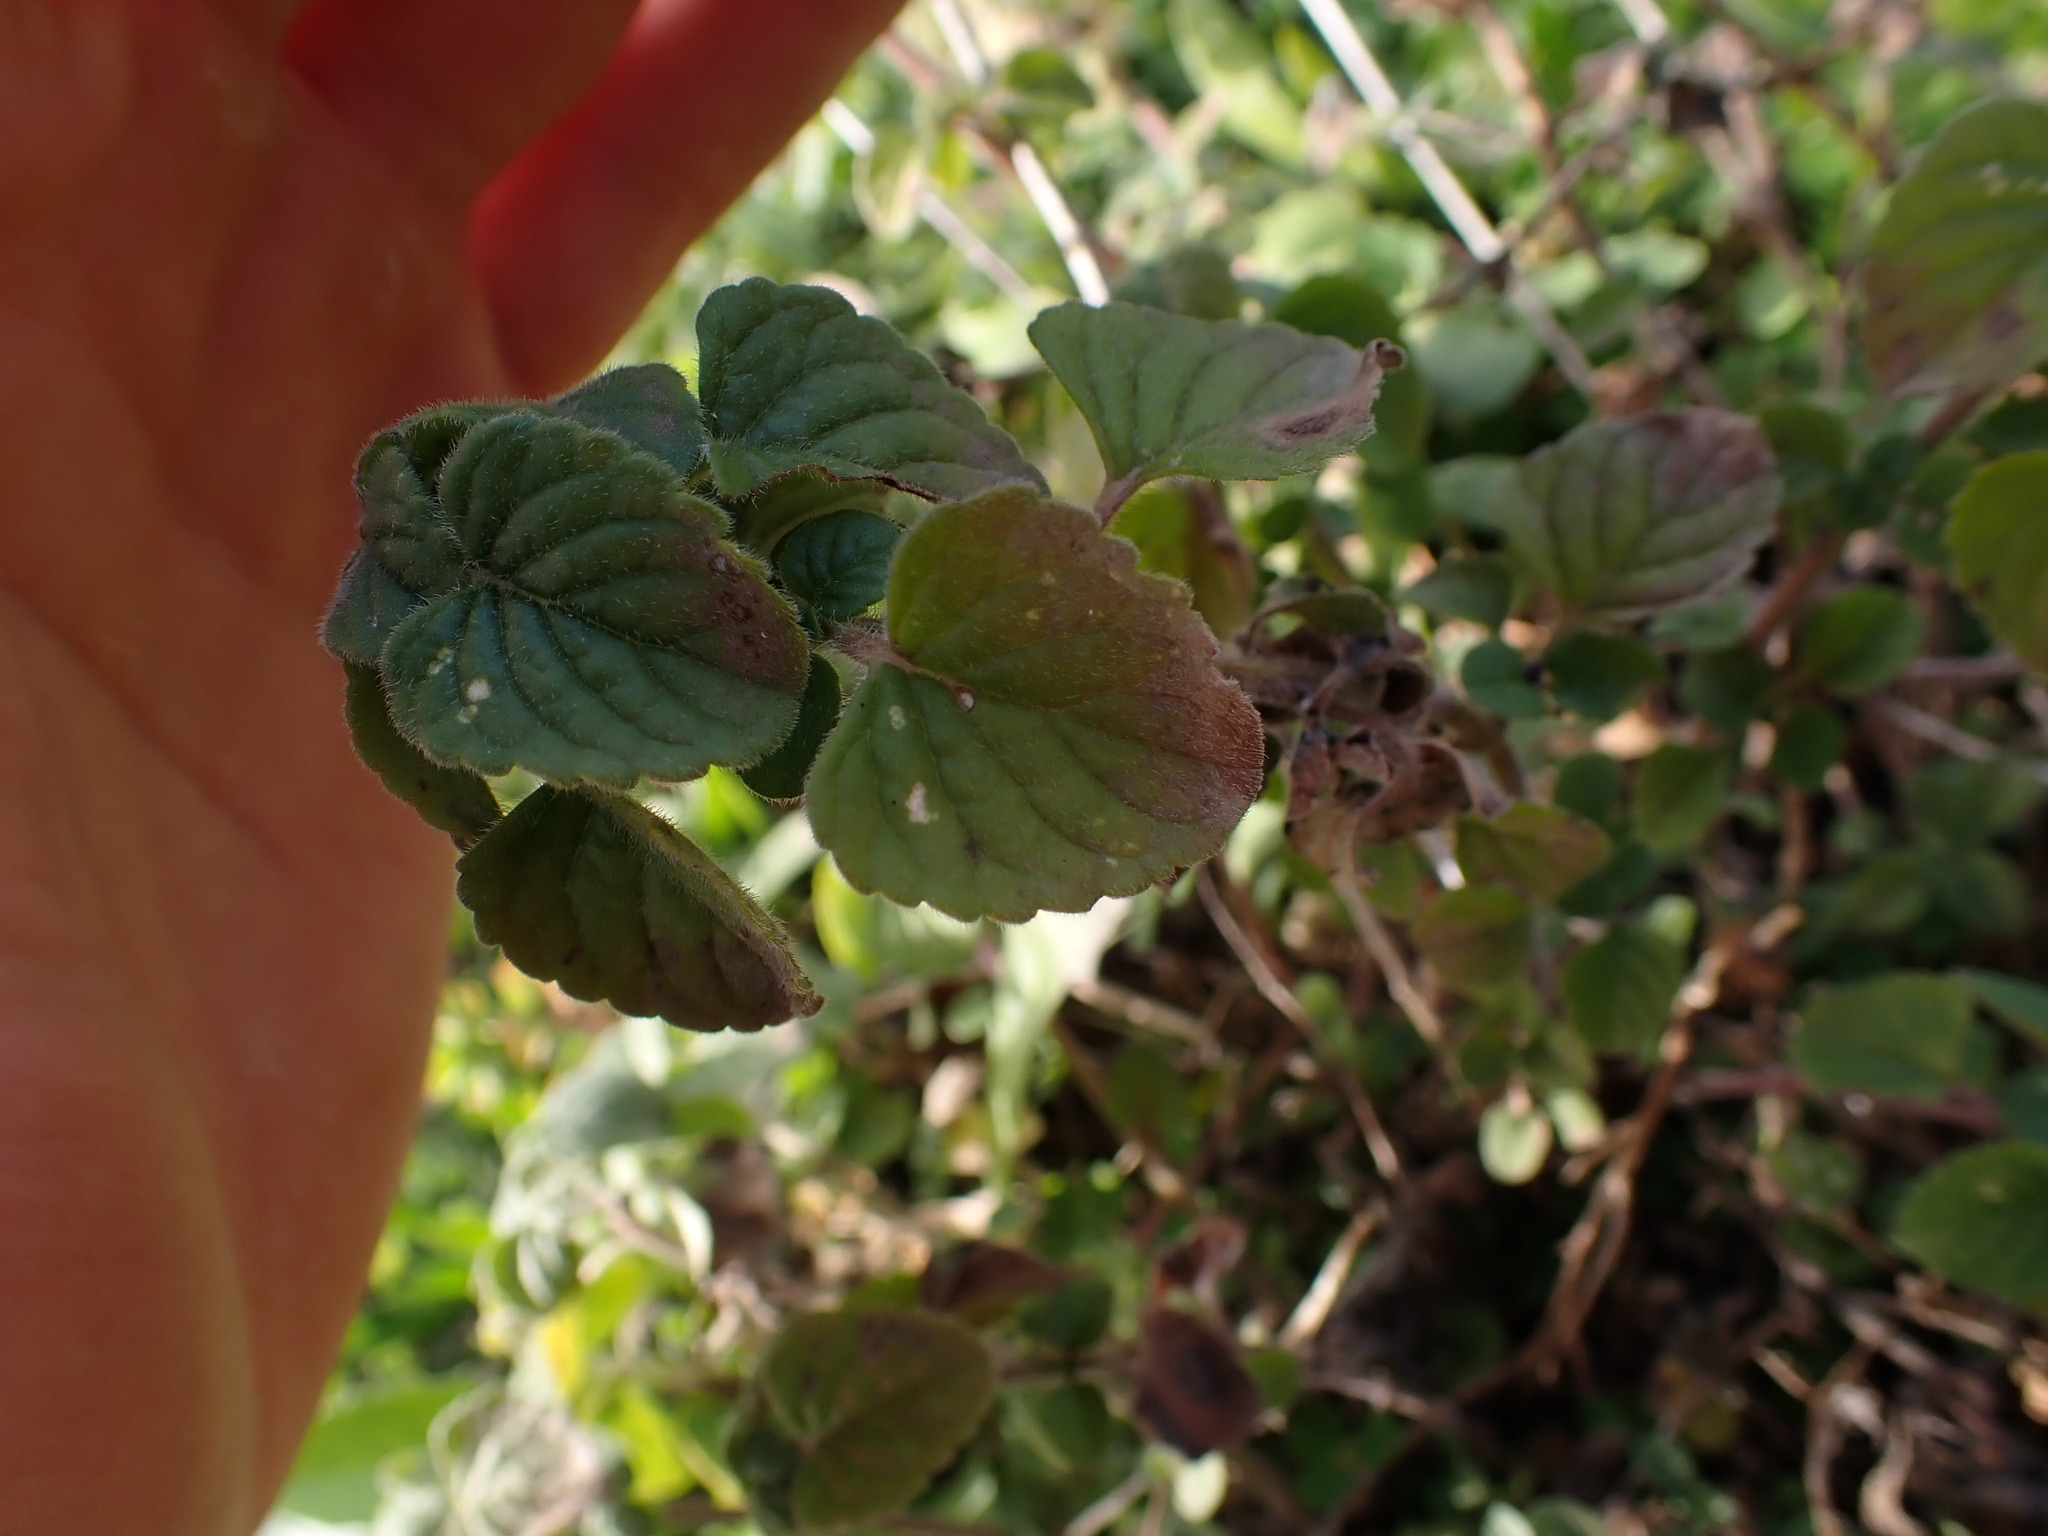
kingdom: Plantae
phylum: Tracheophyta
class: Magnoliopsida
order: Lamiales
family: Lamiaceae
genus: Clinopodium
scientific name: Clinopodium nepeta
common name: Lesser calamint
